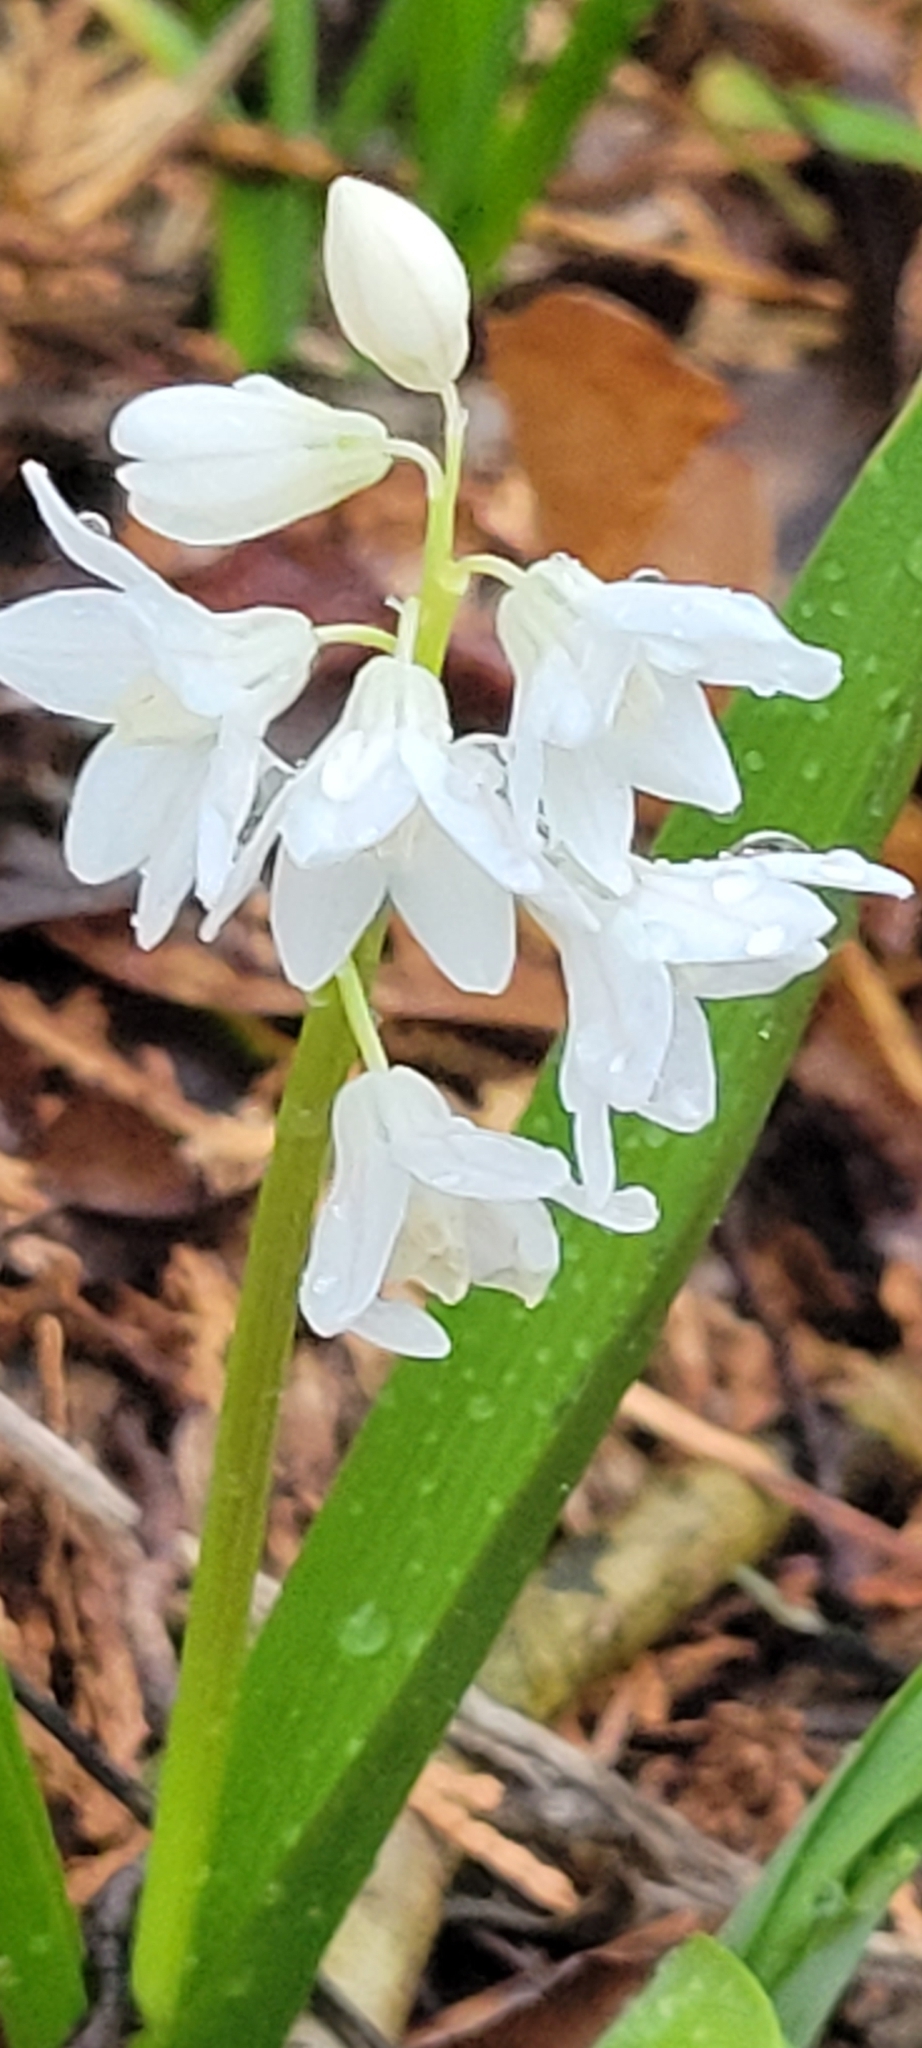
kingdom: Plantae
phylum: Tracheophyta
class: Liliopsida
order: Asparagales
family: Asparagaceae
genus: Puschkinia
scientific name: Puschkinia scilloides
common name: Striped squill
